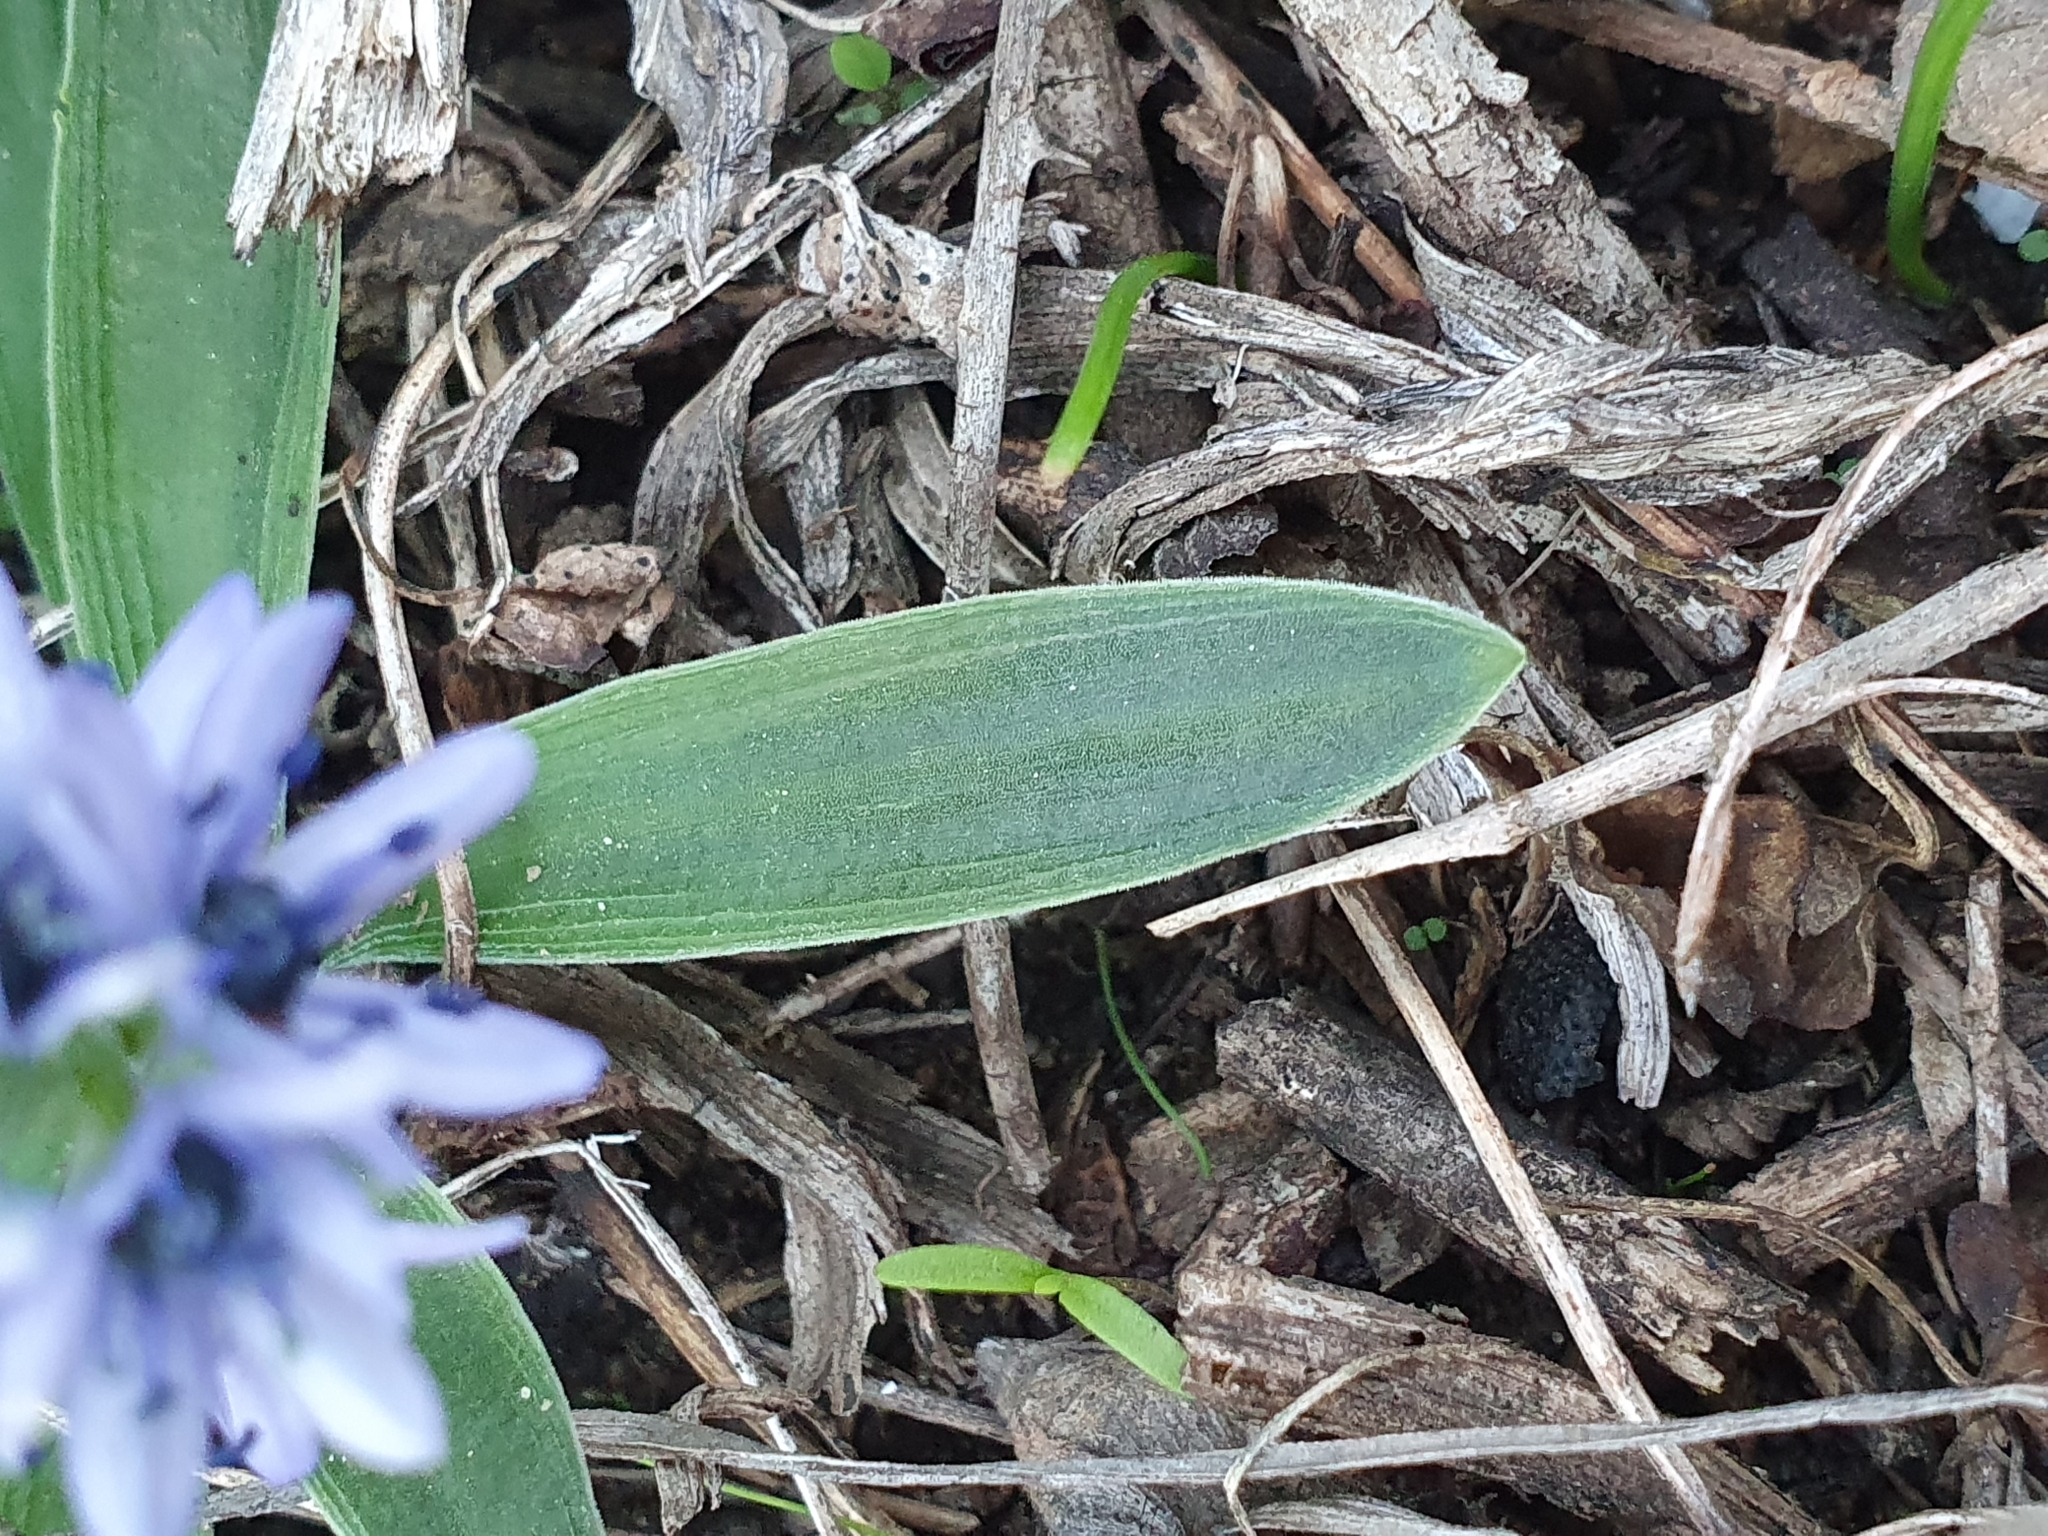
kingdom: Plantae
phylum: Tracheophyta
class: Liliopsida
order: Asparagales
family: Asparagaceae
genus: Hyacinthoides
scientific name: Hyacinthoides lingulata
